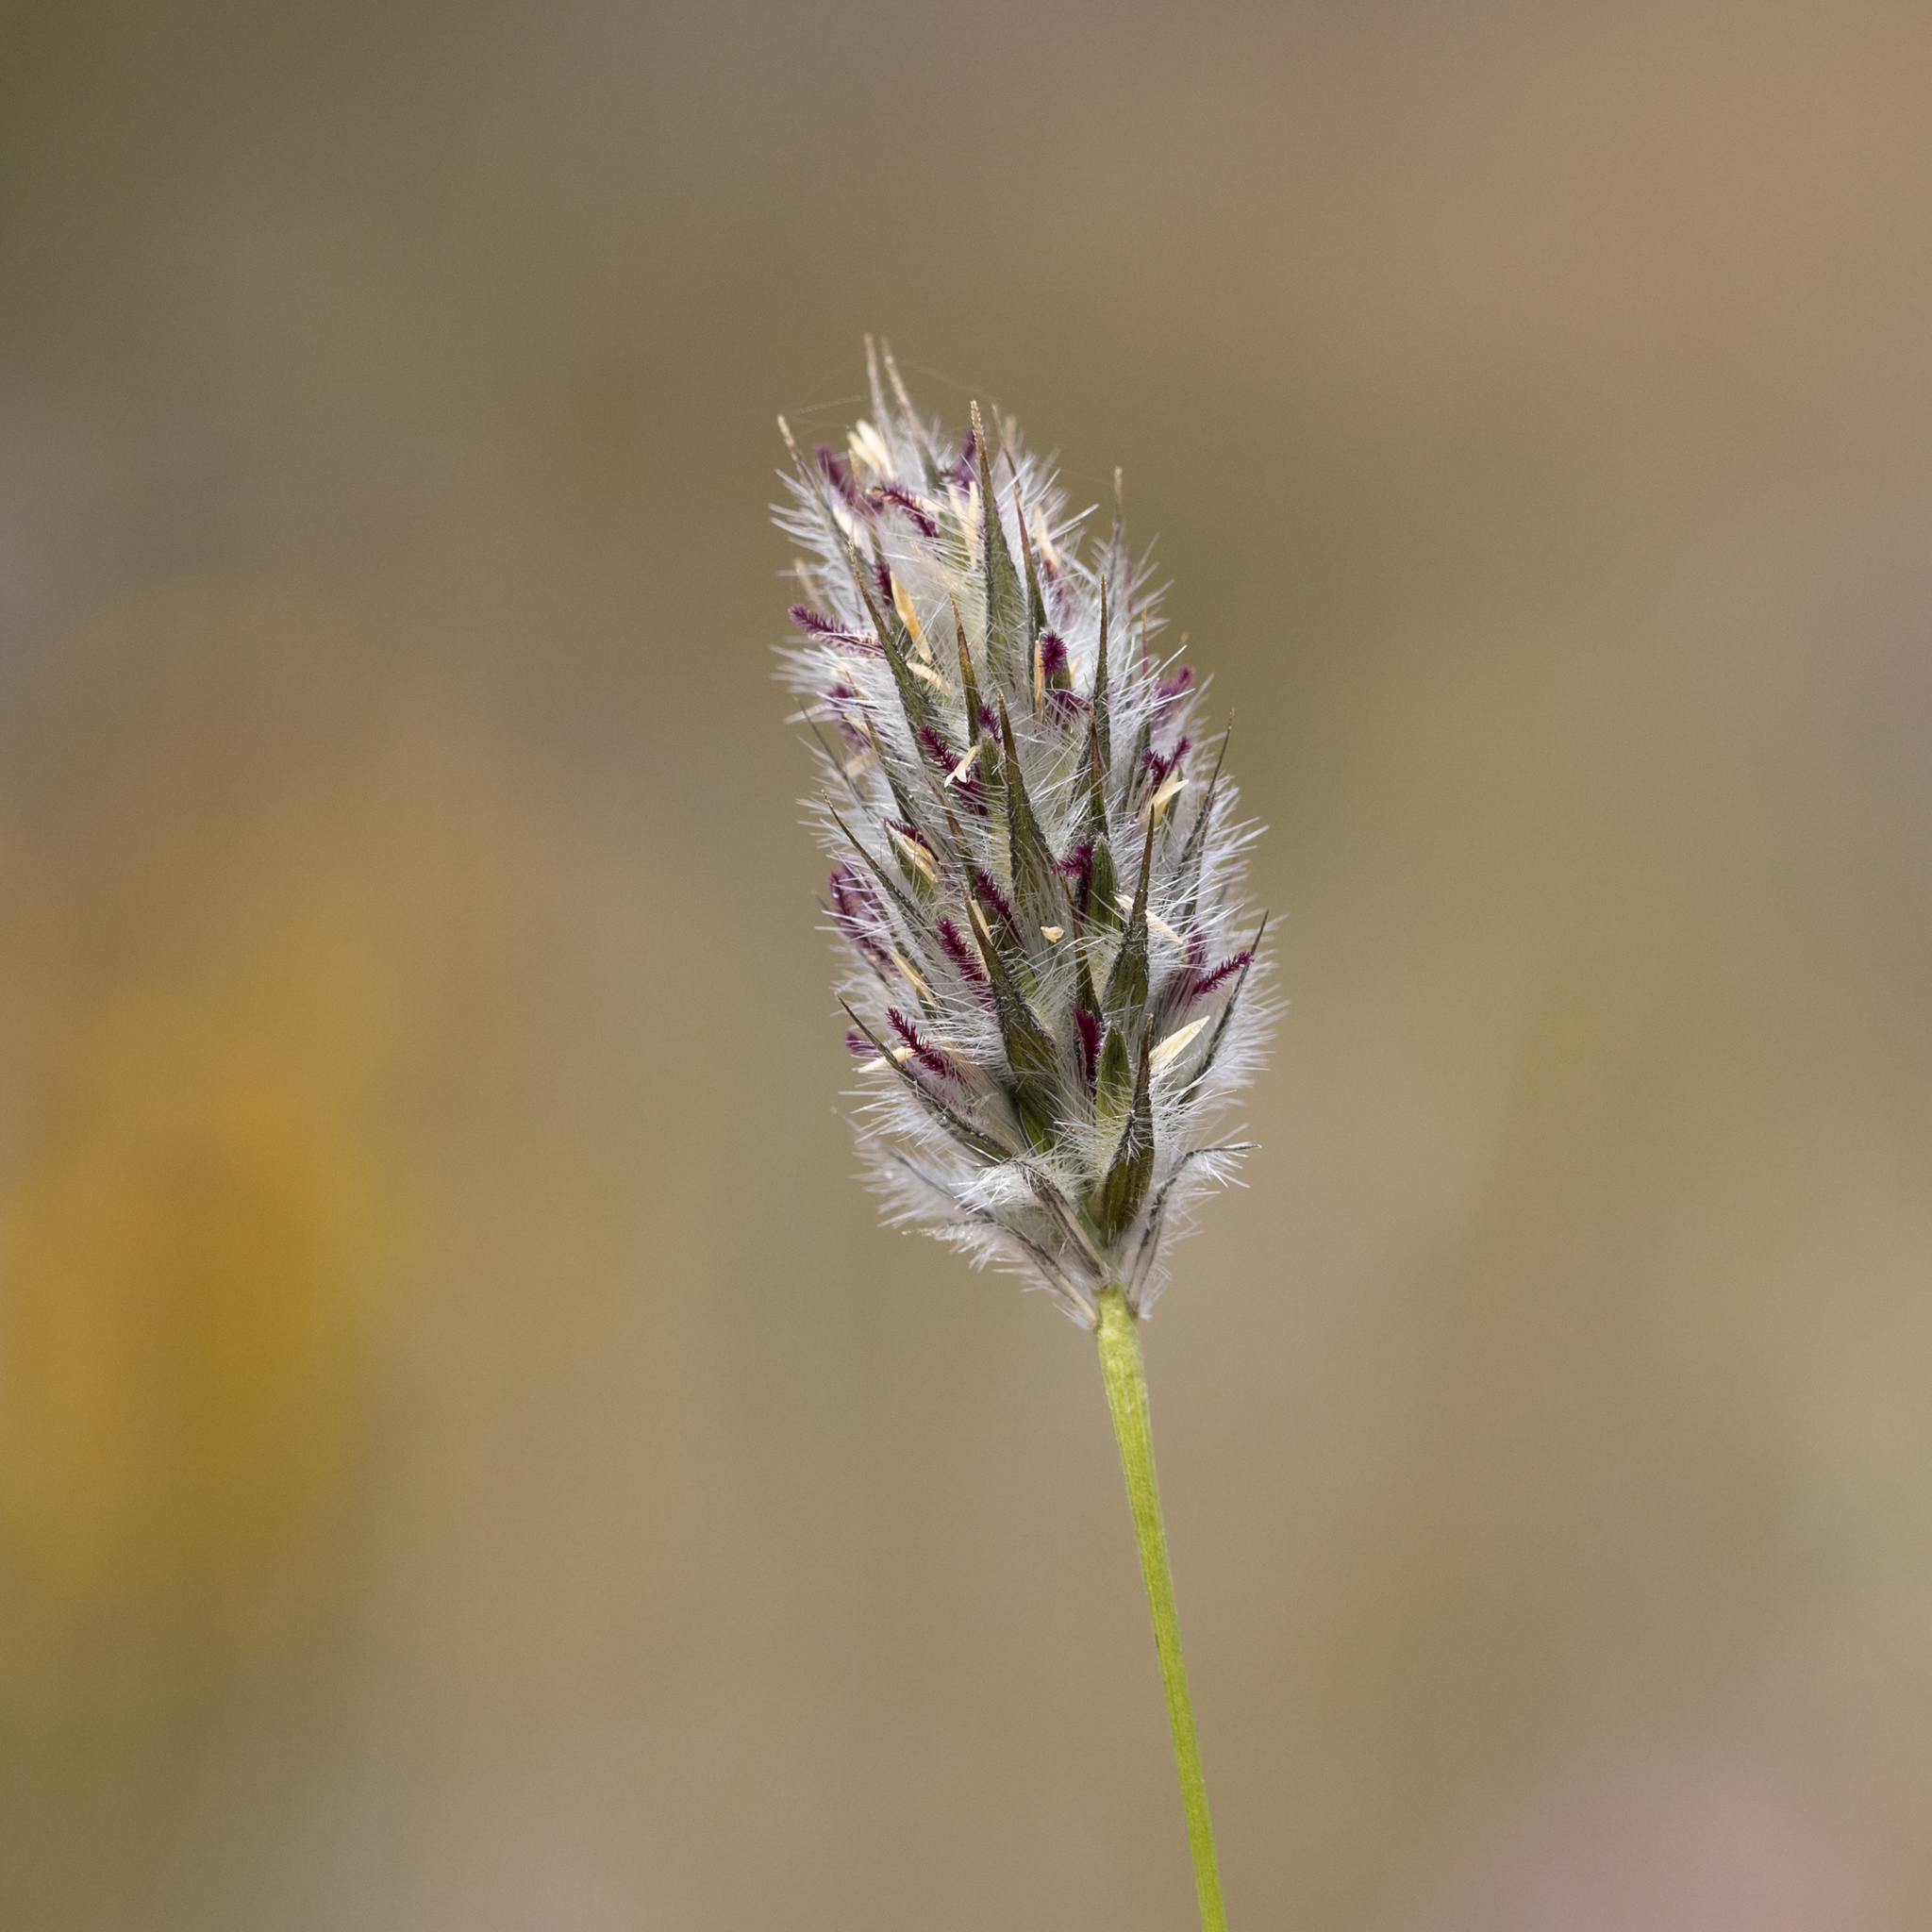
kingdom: Plantae
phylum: Tracheophyta
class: Liliopsida
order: Poales
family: Poaceae
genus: Neurachne
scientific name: Neurachne alopecuroidea
